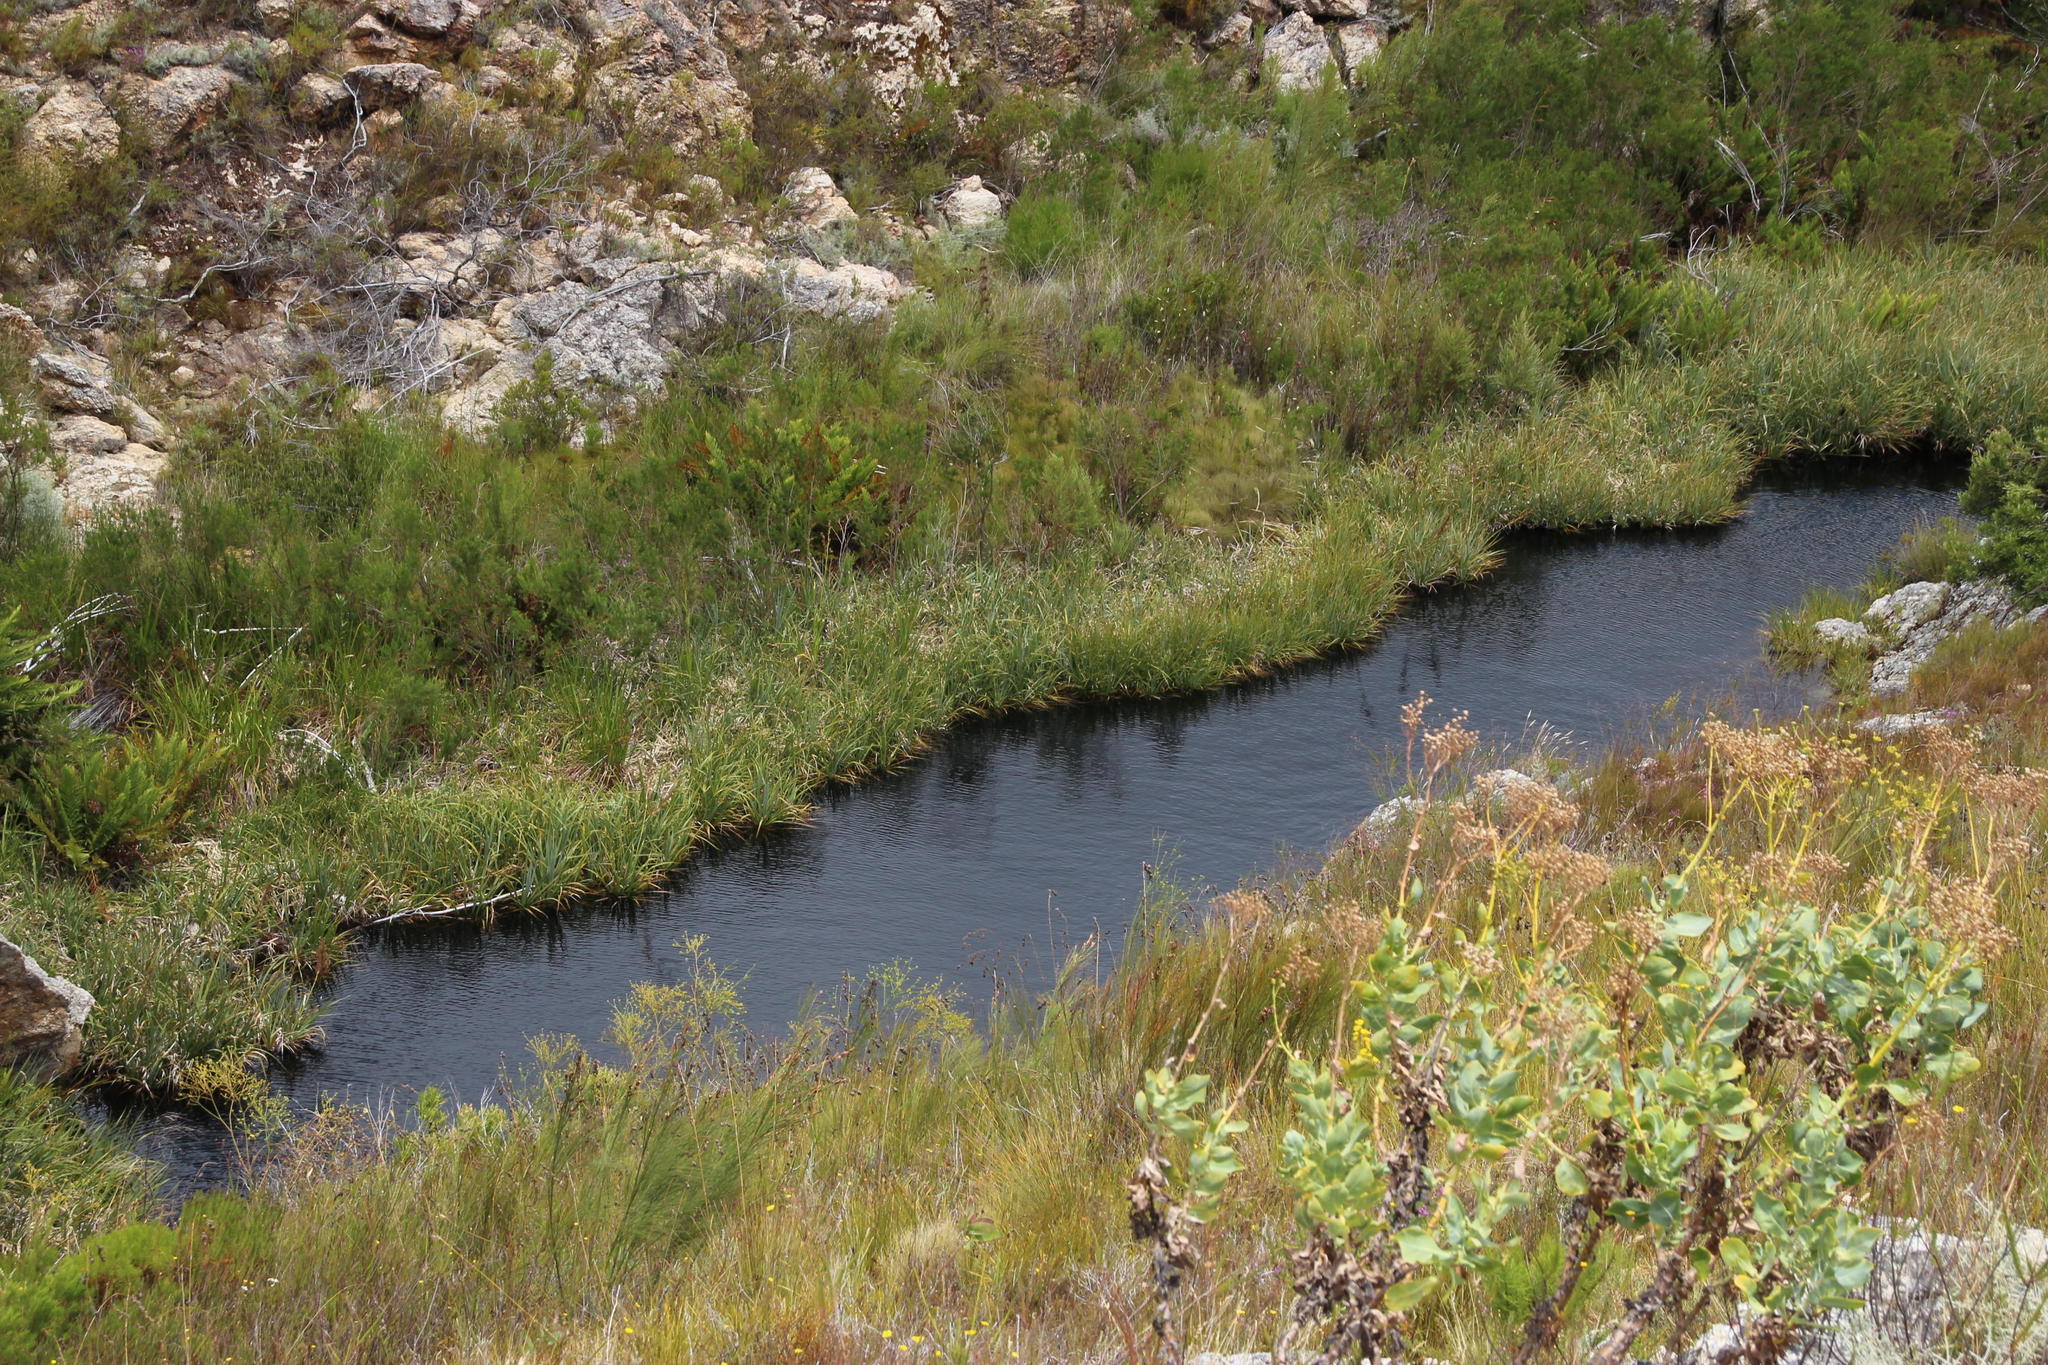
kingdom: Plantae
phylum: Tracheophyta
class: Liliopsida
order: Poales
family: Thurniaceae
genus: Prionium
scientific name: Prionium serratum
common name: Palmiet
